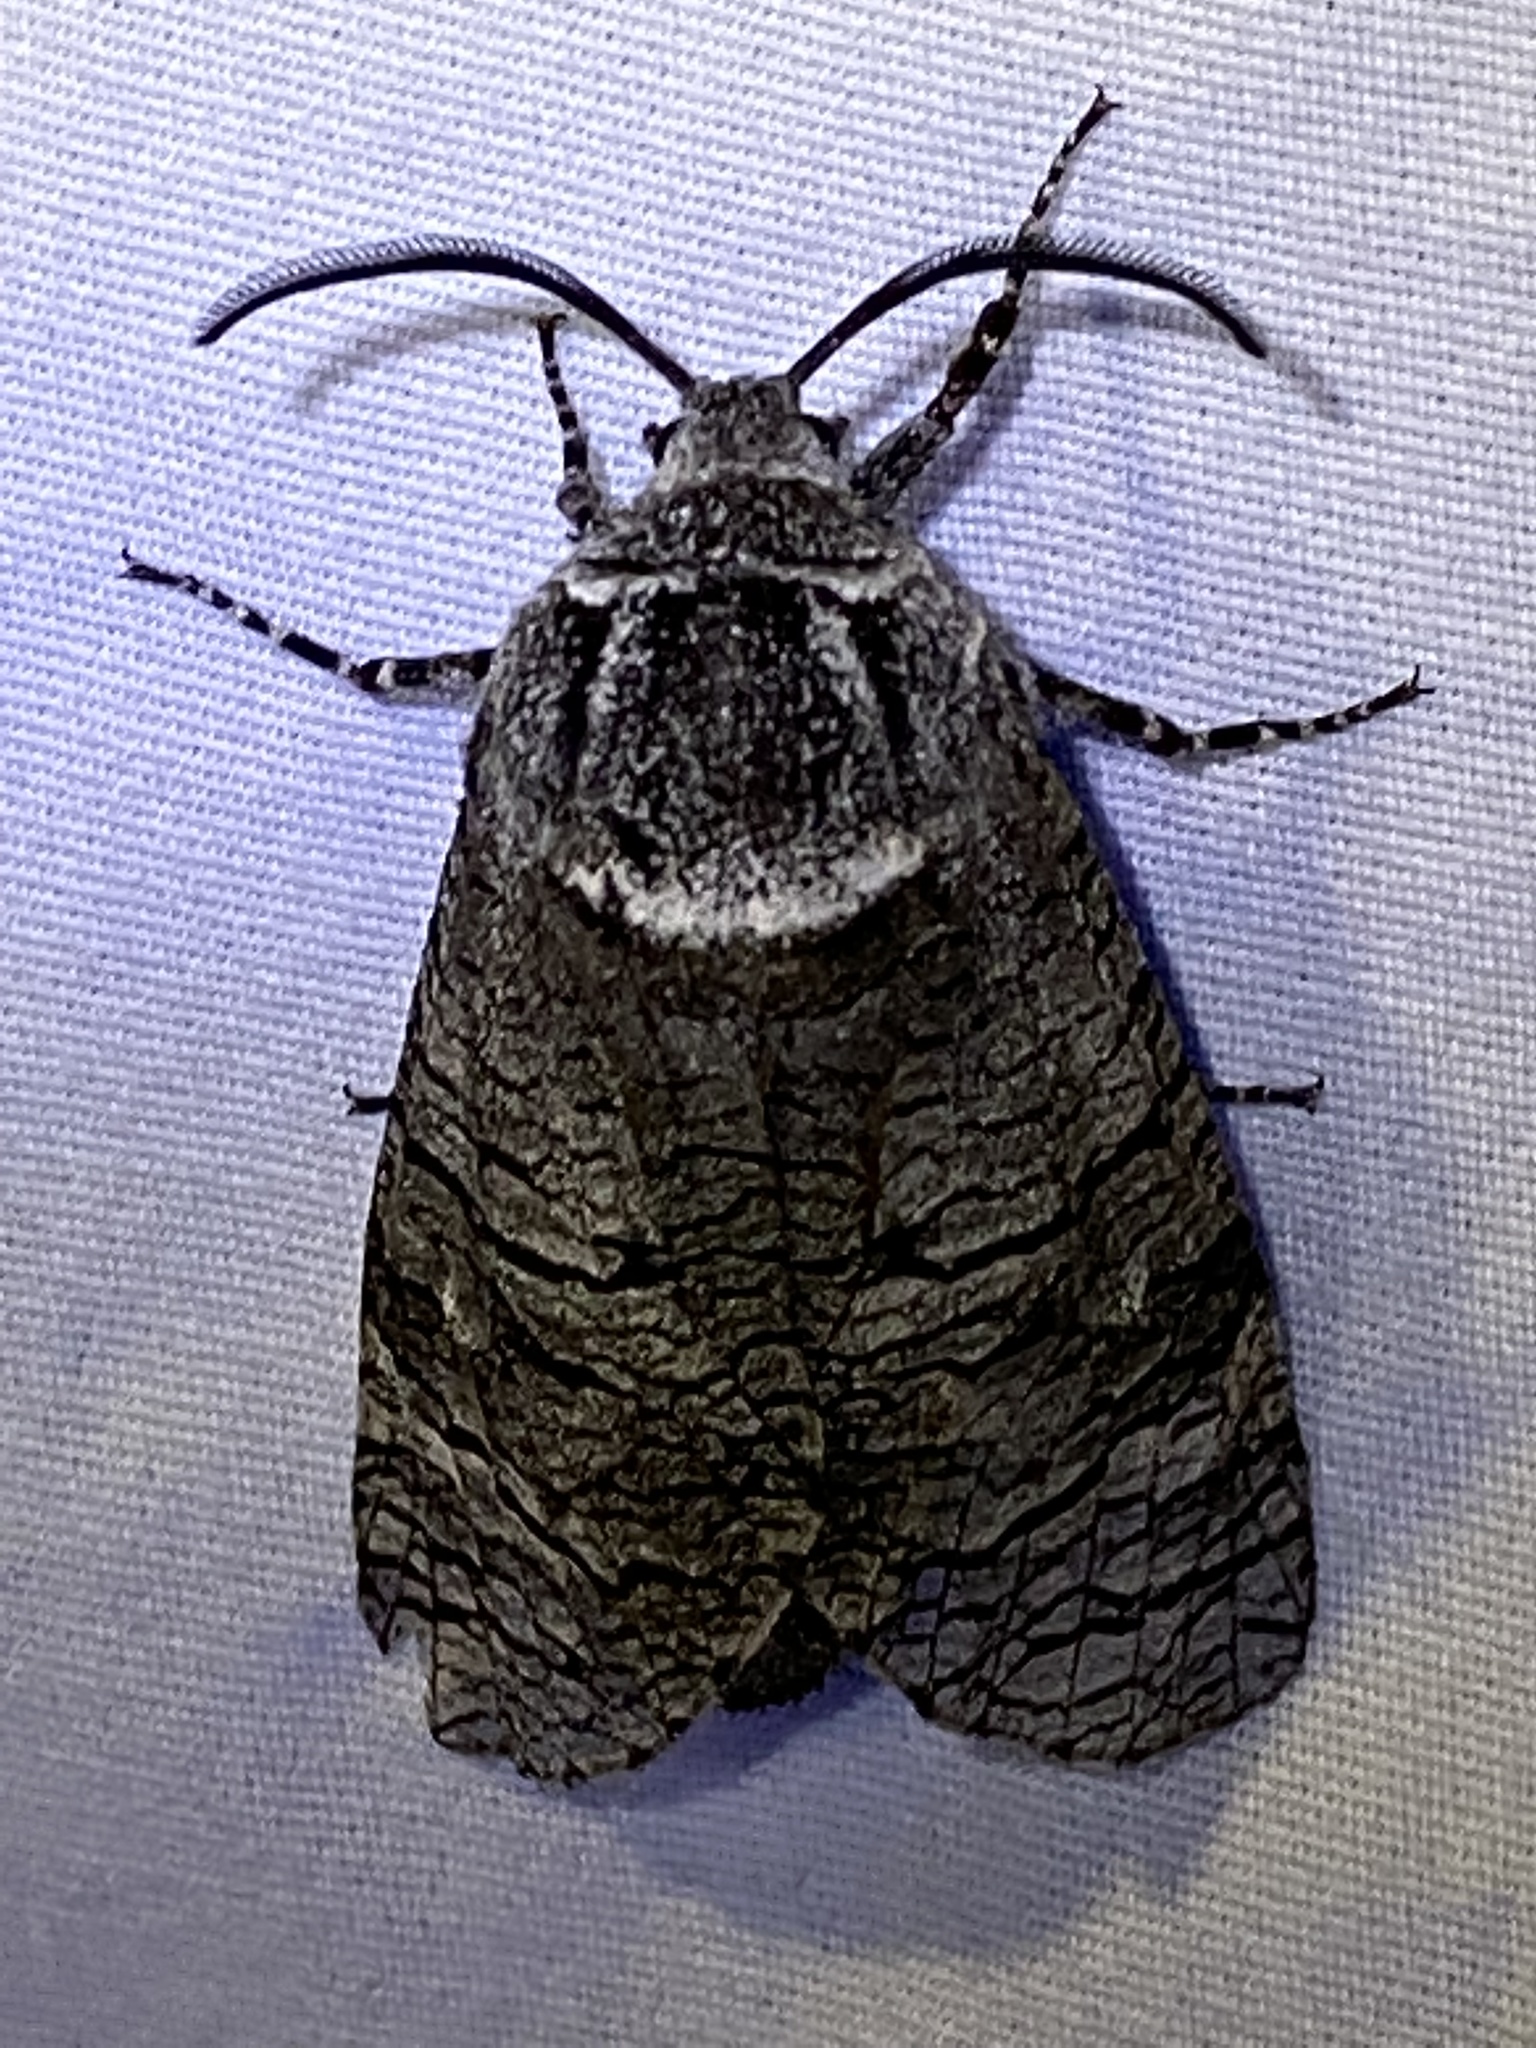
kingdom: Animalia
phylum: Arthropoda
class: Insecta
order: Lepidoptera
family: Cossidae
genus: Prionoxystus
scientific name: Prionoxystus macmurtrei
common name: Little carpenterworm
